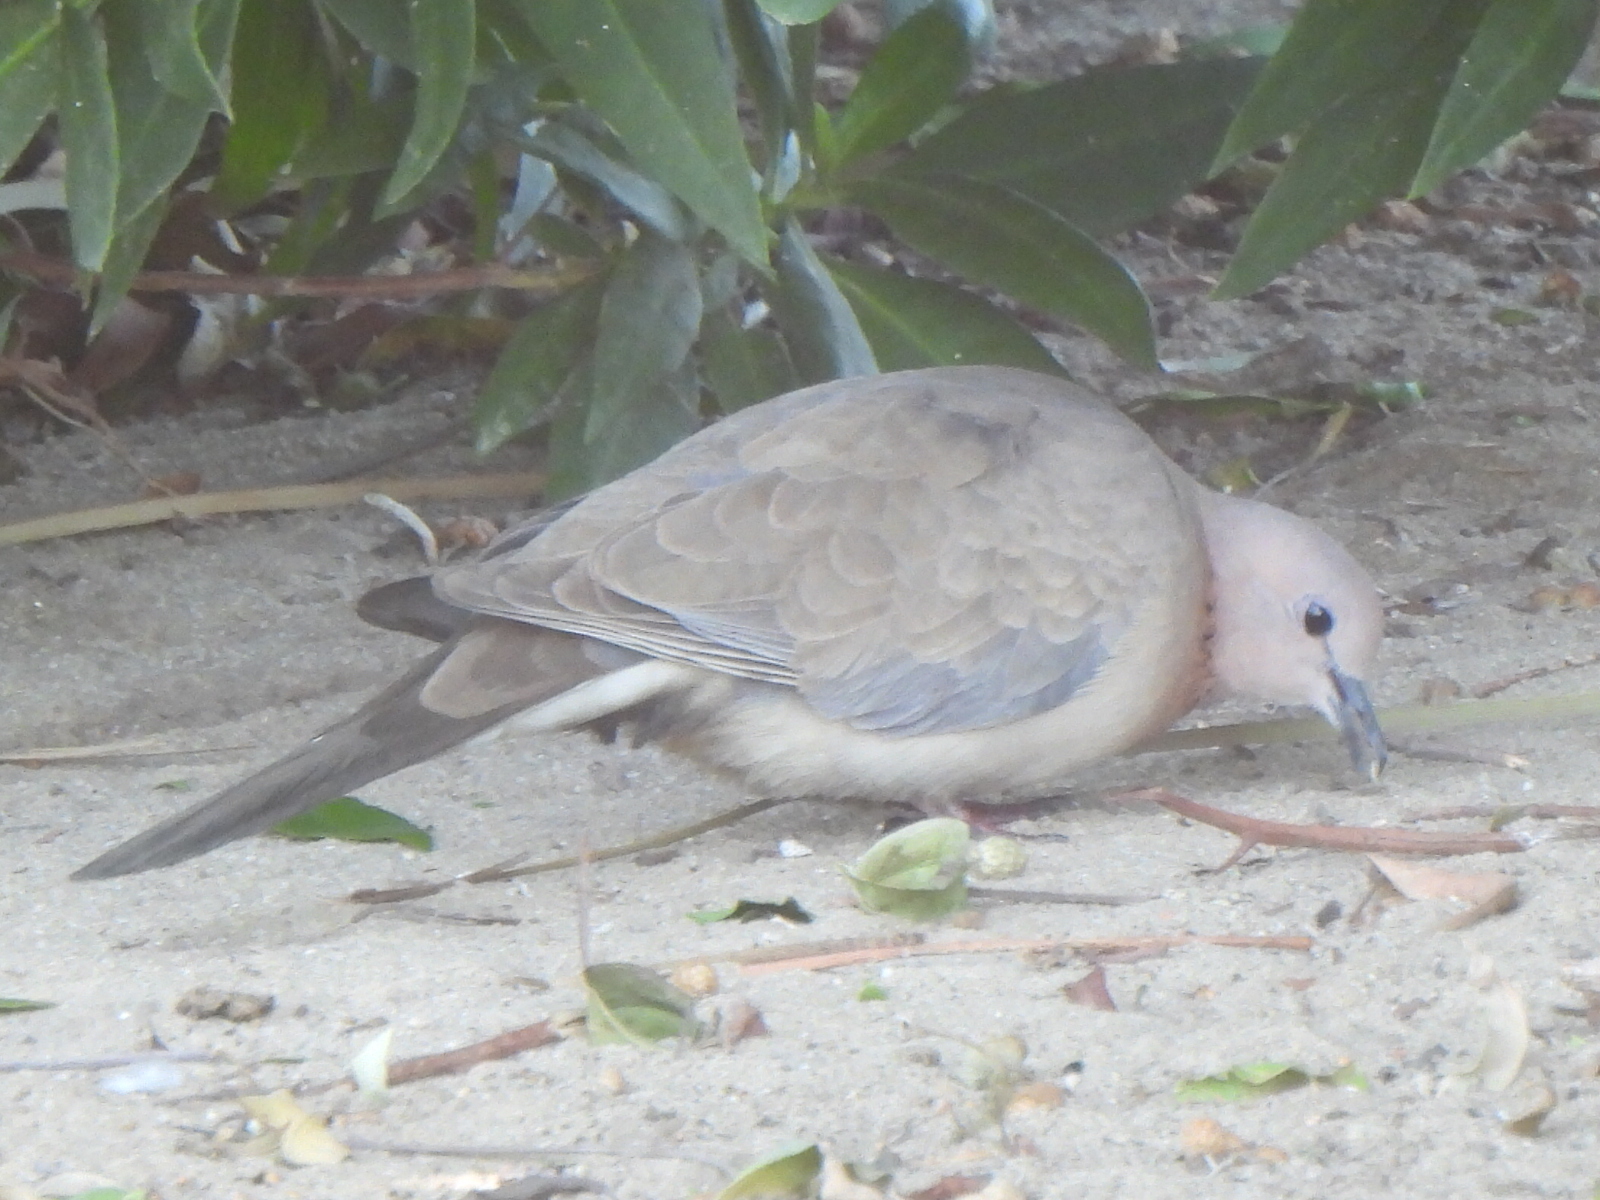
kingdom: Animalia
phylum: Chordata
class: Aves
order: Columbiformes
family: Columbidae
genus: Spilopelia
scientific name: Spilopelia senegalensis
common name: Laughing dove
